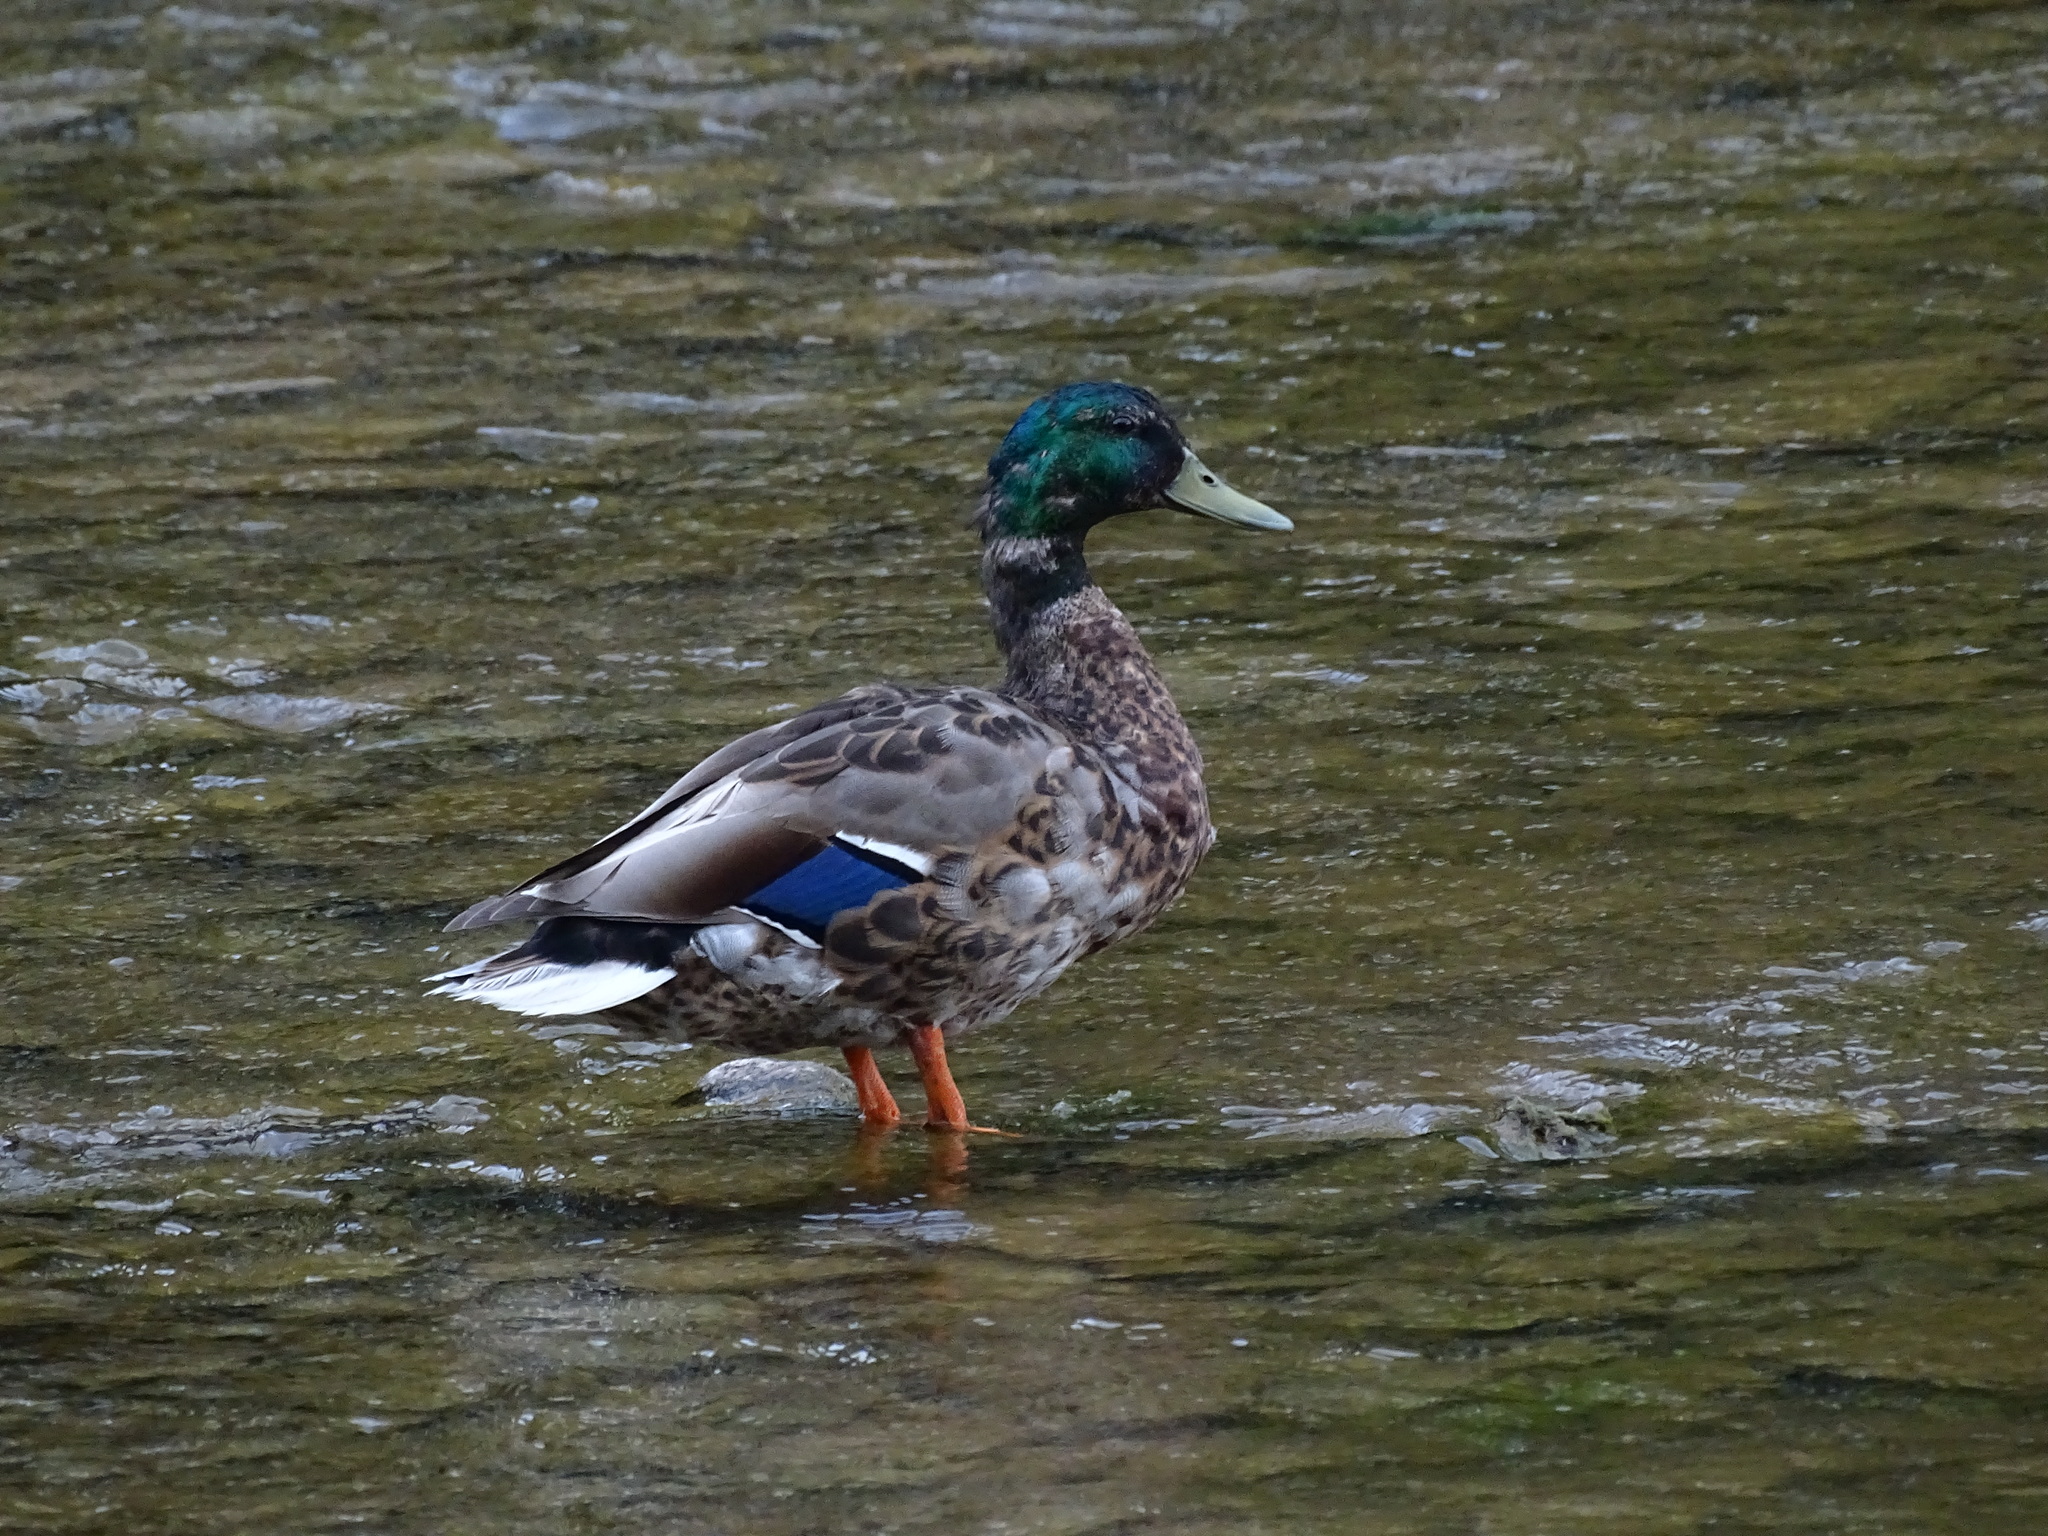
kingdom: Animalia
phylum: Chordata
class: Aves
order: Anseriformes
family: Anatidae
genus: Anas
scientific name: Anas platyrhynchos
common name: Mallard
